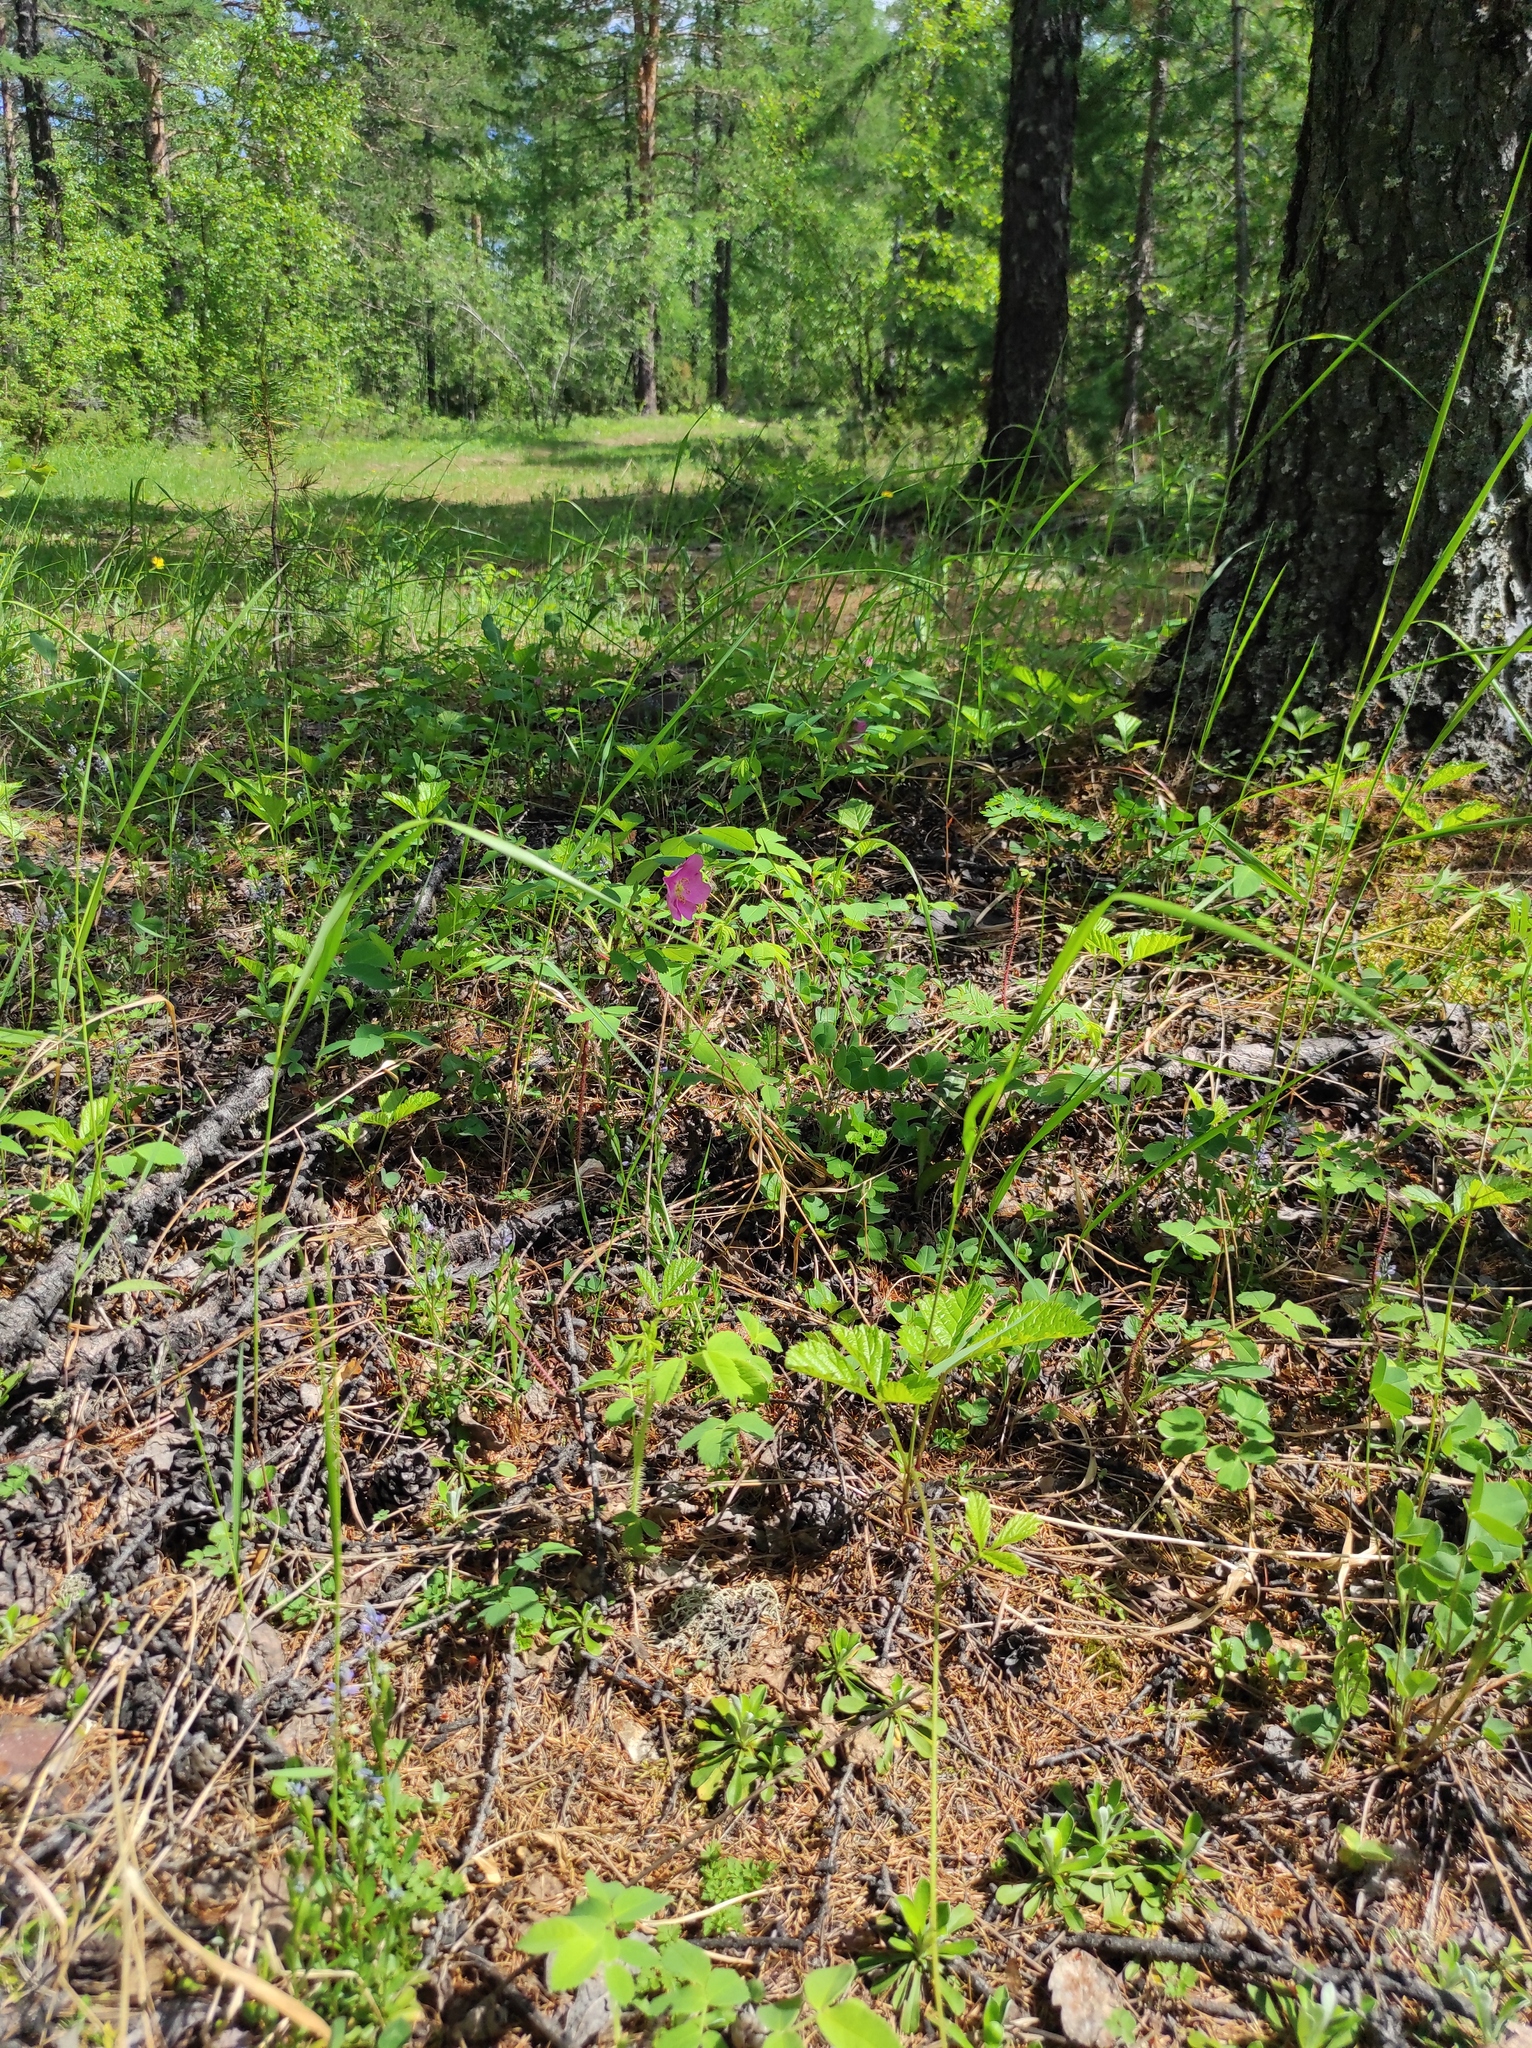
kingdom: Plantae
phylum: Tracheophyta
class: Pinopsida
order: Pinales
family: Pinaceae
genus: Pinus
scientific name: Pinus sylvestris
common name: Scots pine
